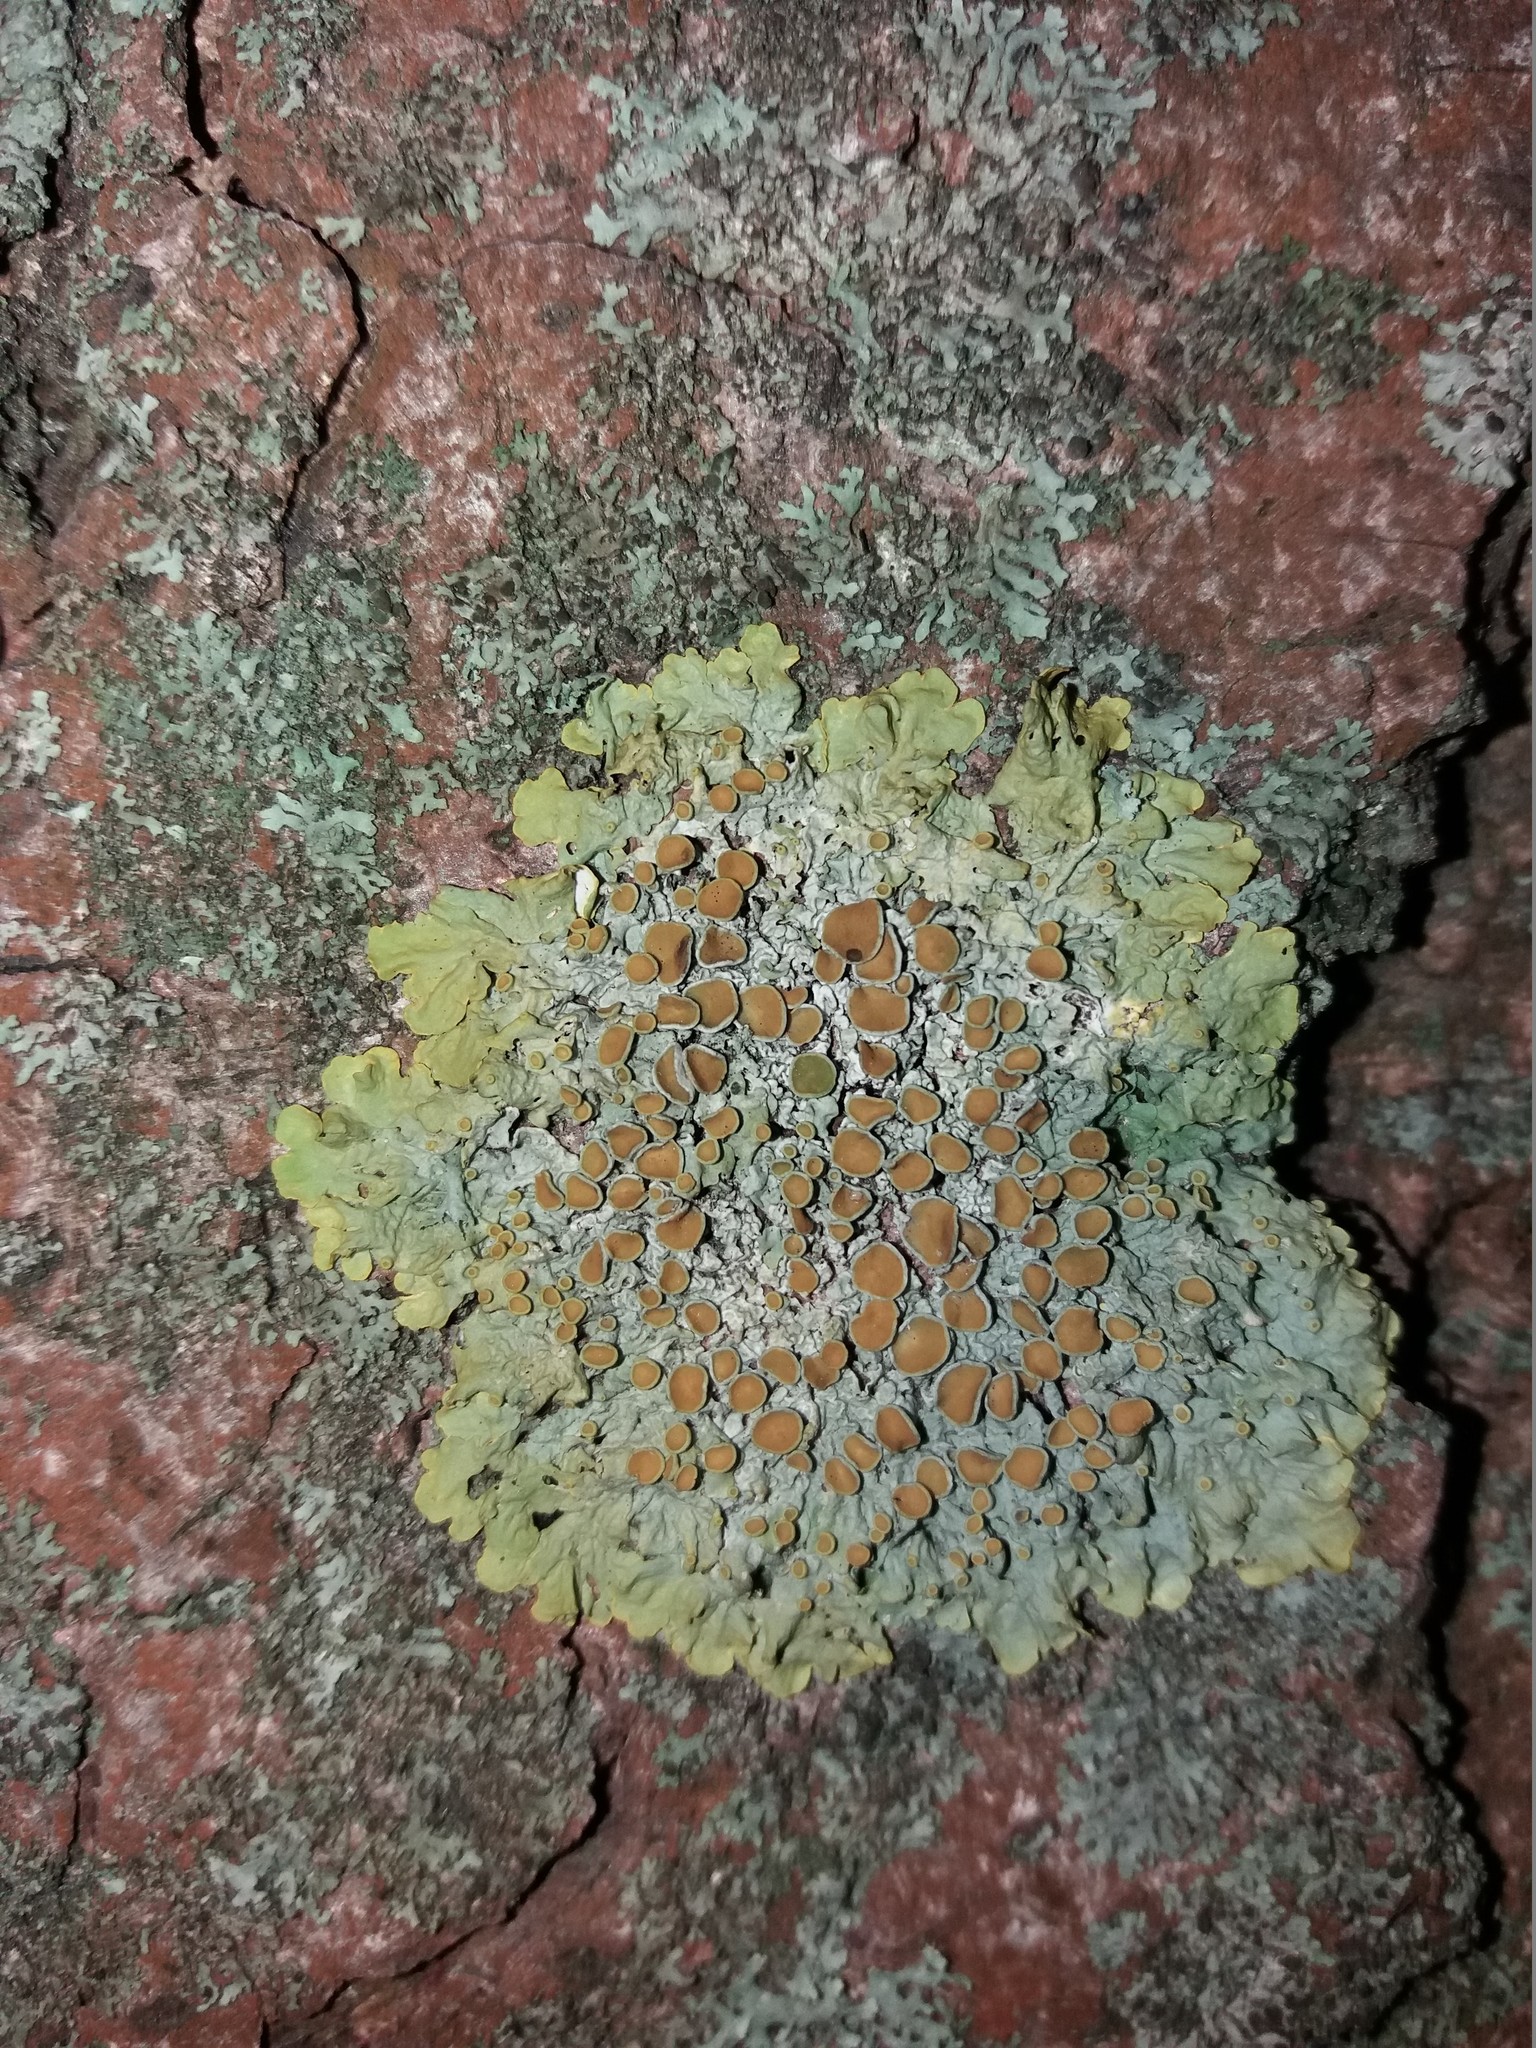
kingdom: Fungi
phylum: Ascomycota
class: Lecanoromycetes
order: Teloschistales
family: Teloschistaceae
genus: Xanthoria
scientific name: Xanthoria parietina
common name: Common orange lichen
